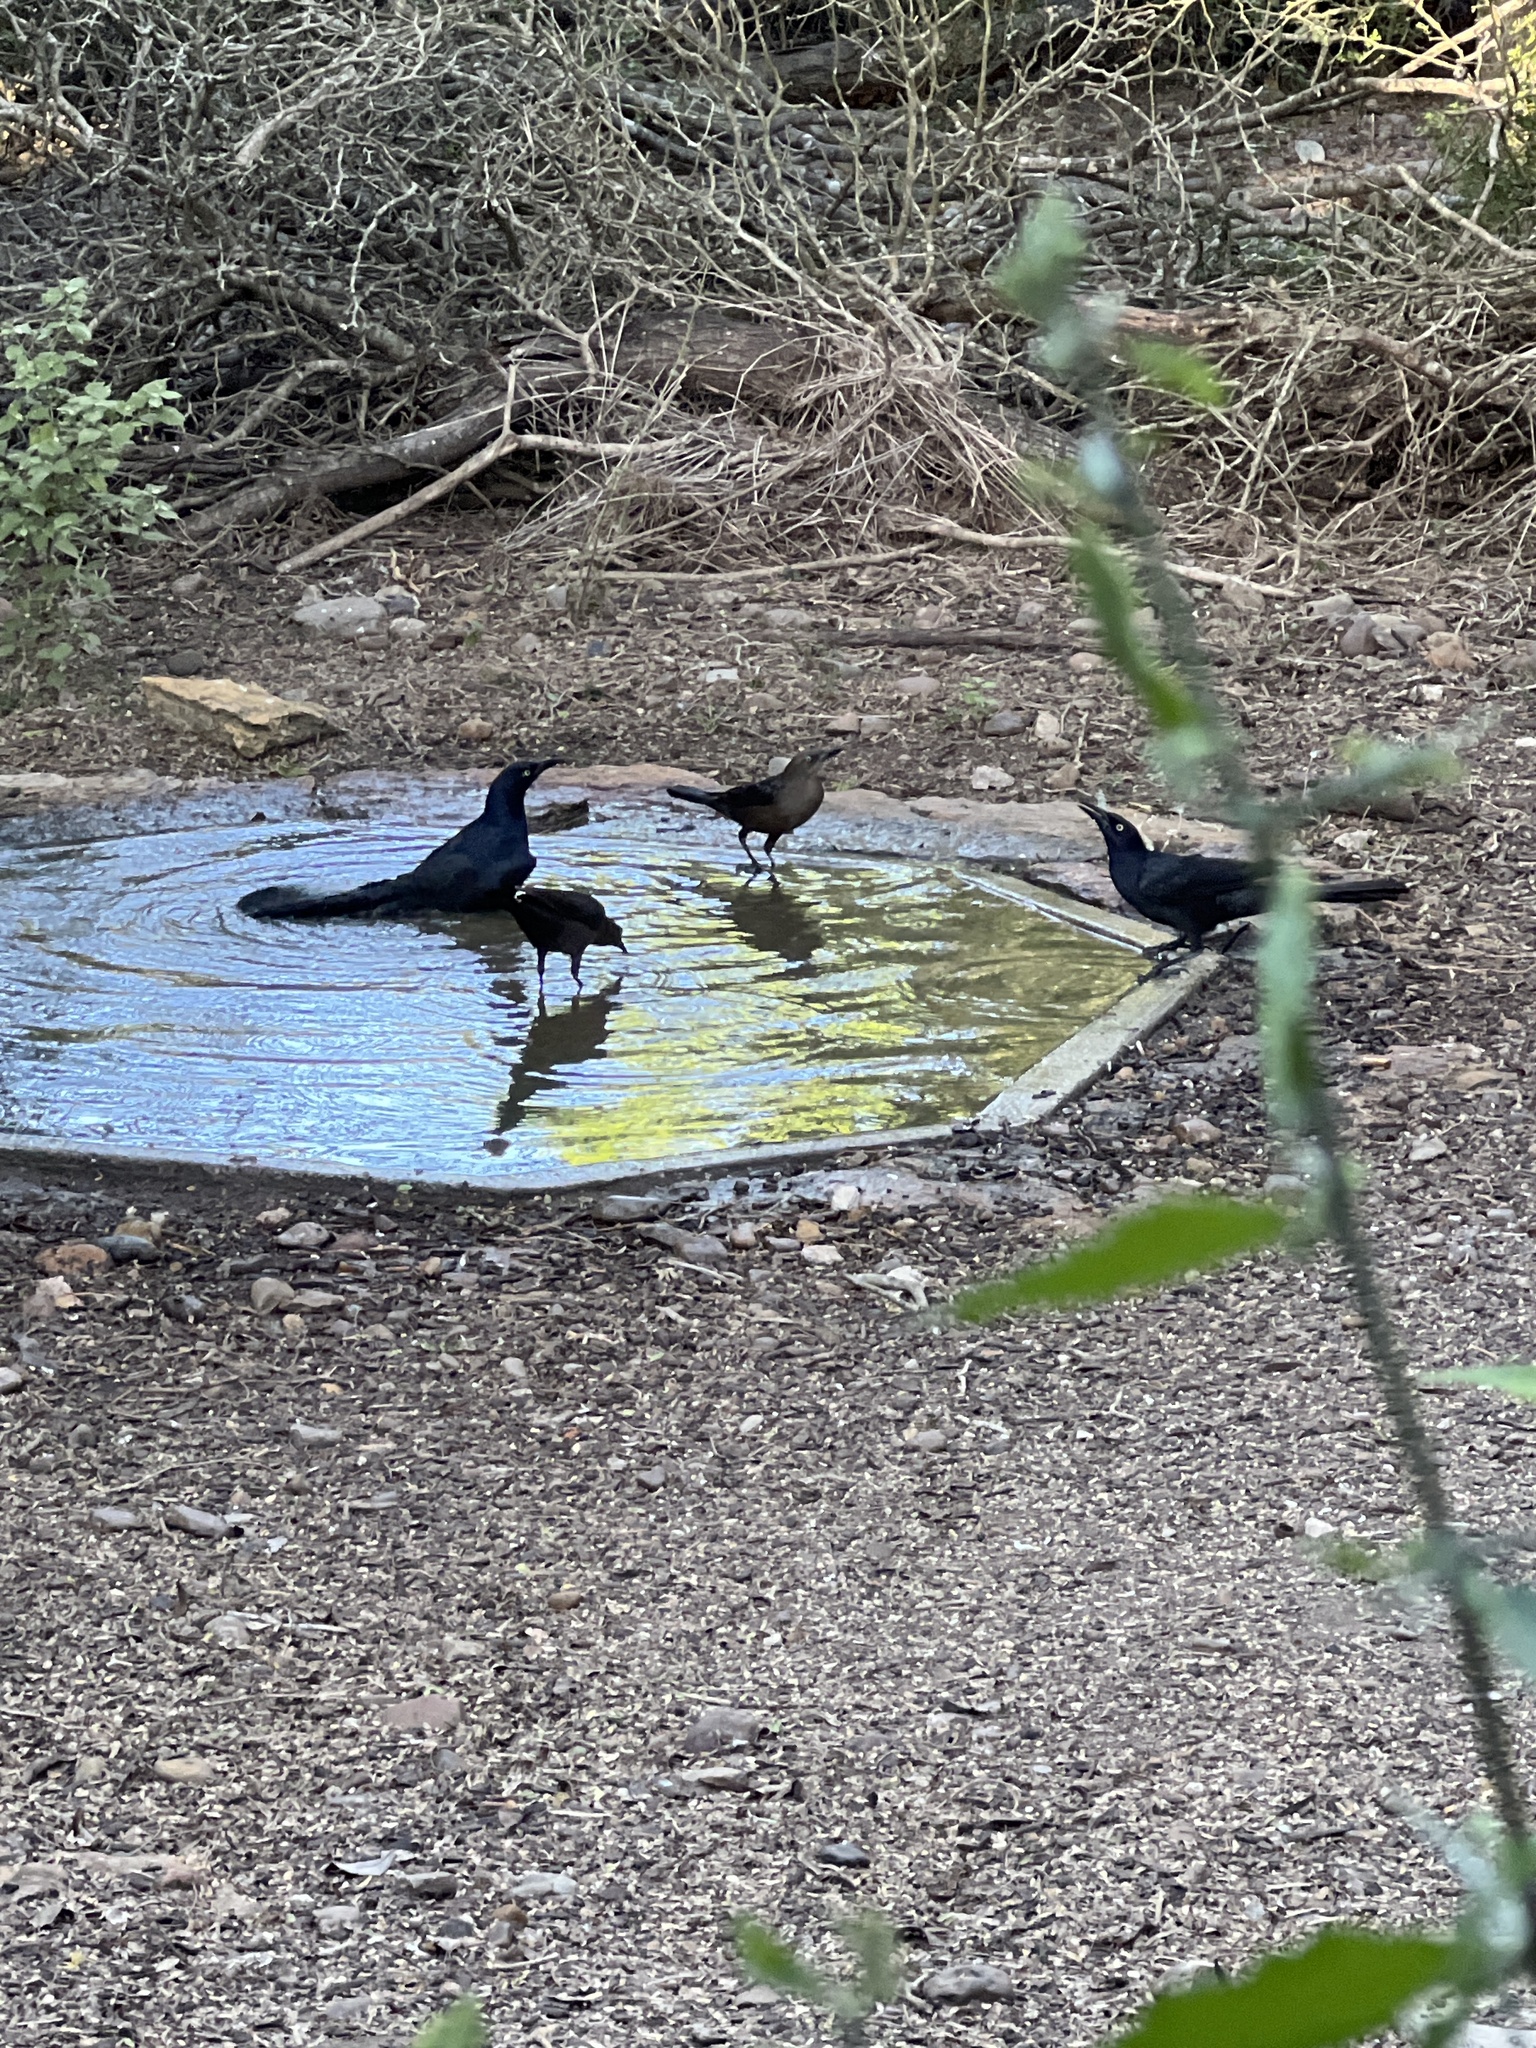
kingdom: Animalia
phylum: Chordata
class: Aves
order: Passeriformes
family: Icteridae
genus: Quiscalus
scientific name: Quiscalus mexicanus
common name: Great-tailed grackle
